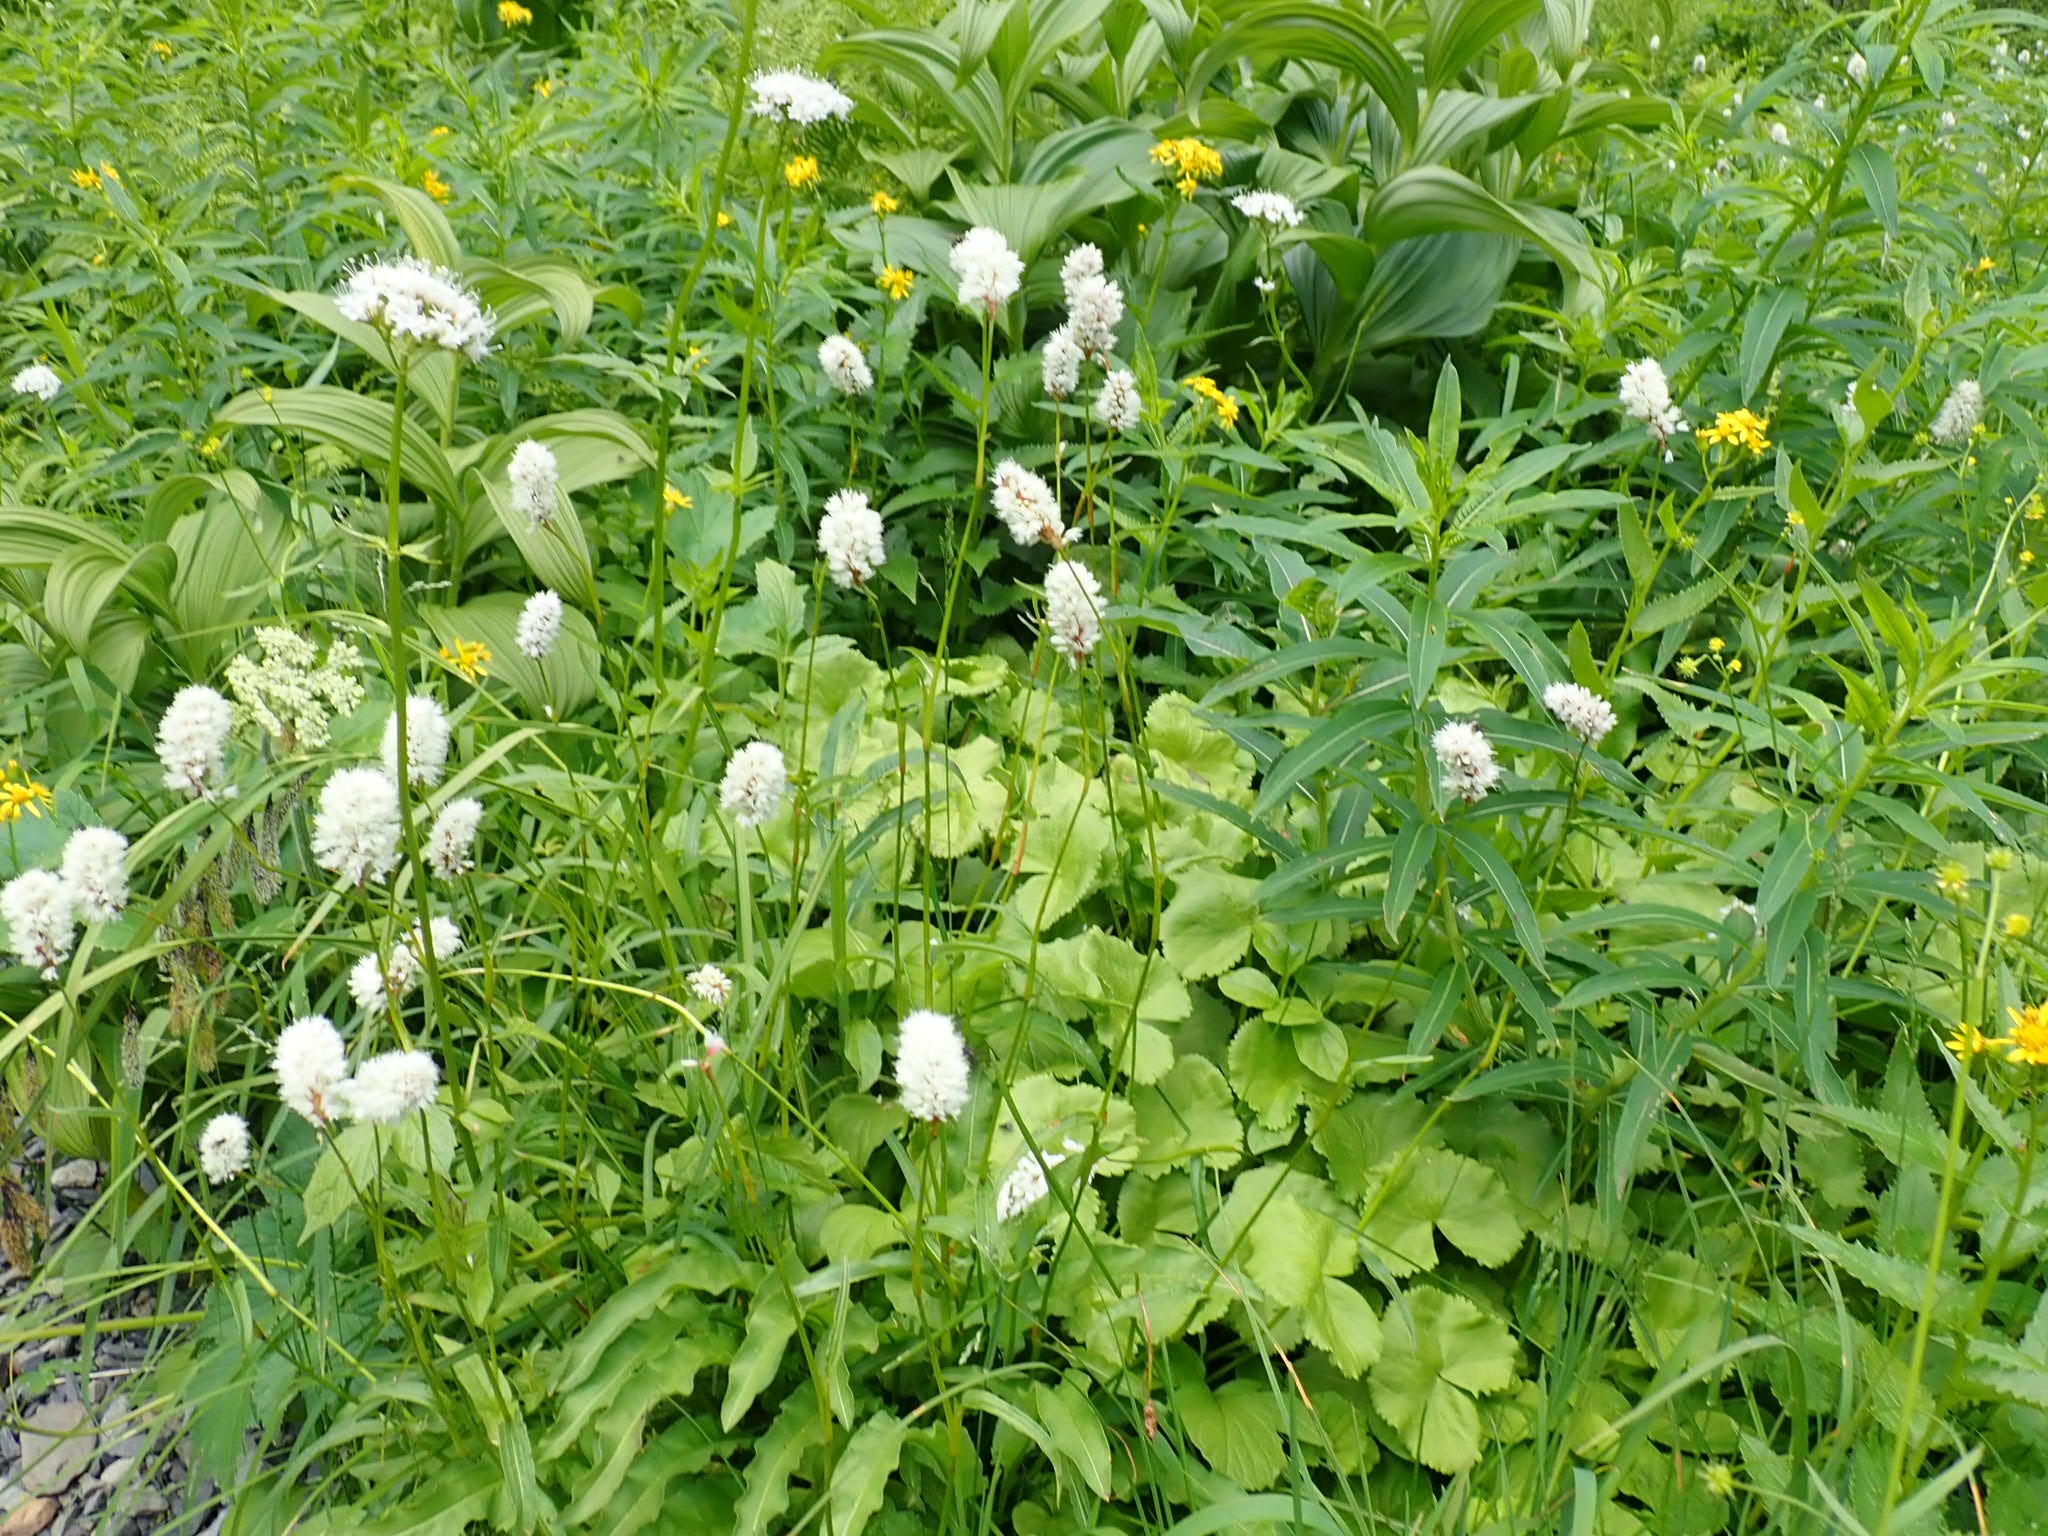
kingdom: Plantae
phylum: Tracheophyta
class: Magnoliopsida
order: Caryophyllales
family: Polygonaceae
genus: Bistorta
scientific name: Bistorta bistortoides
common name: American bistort
